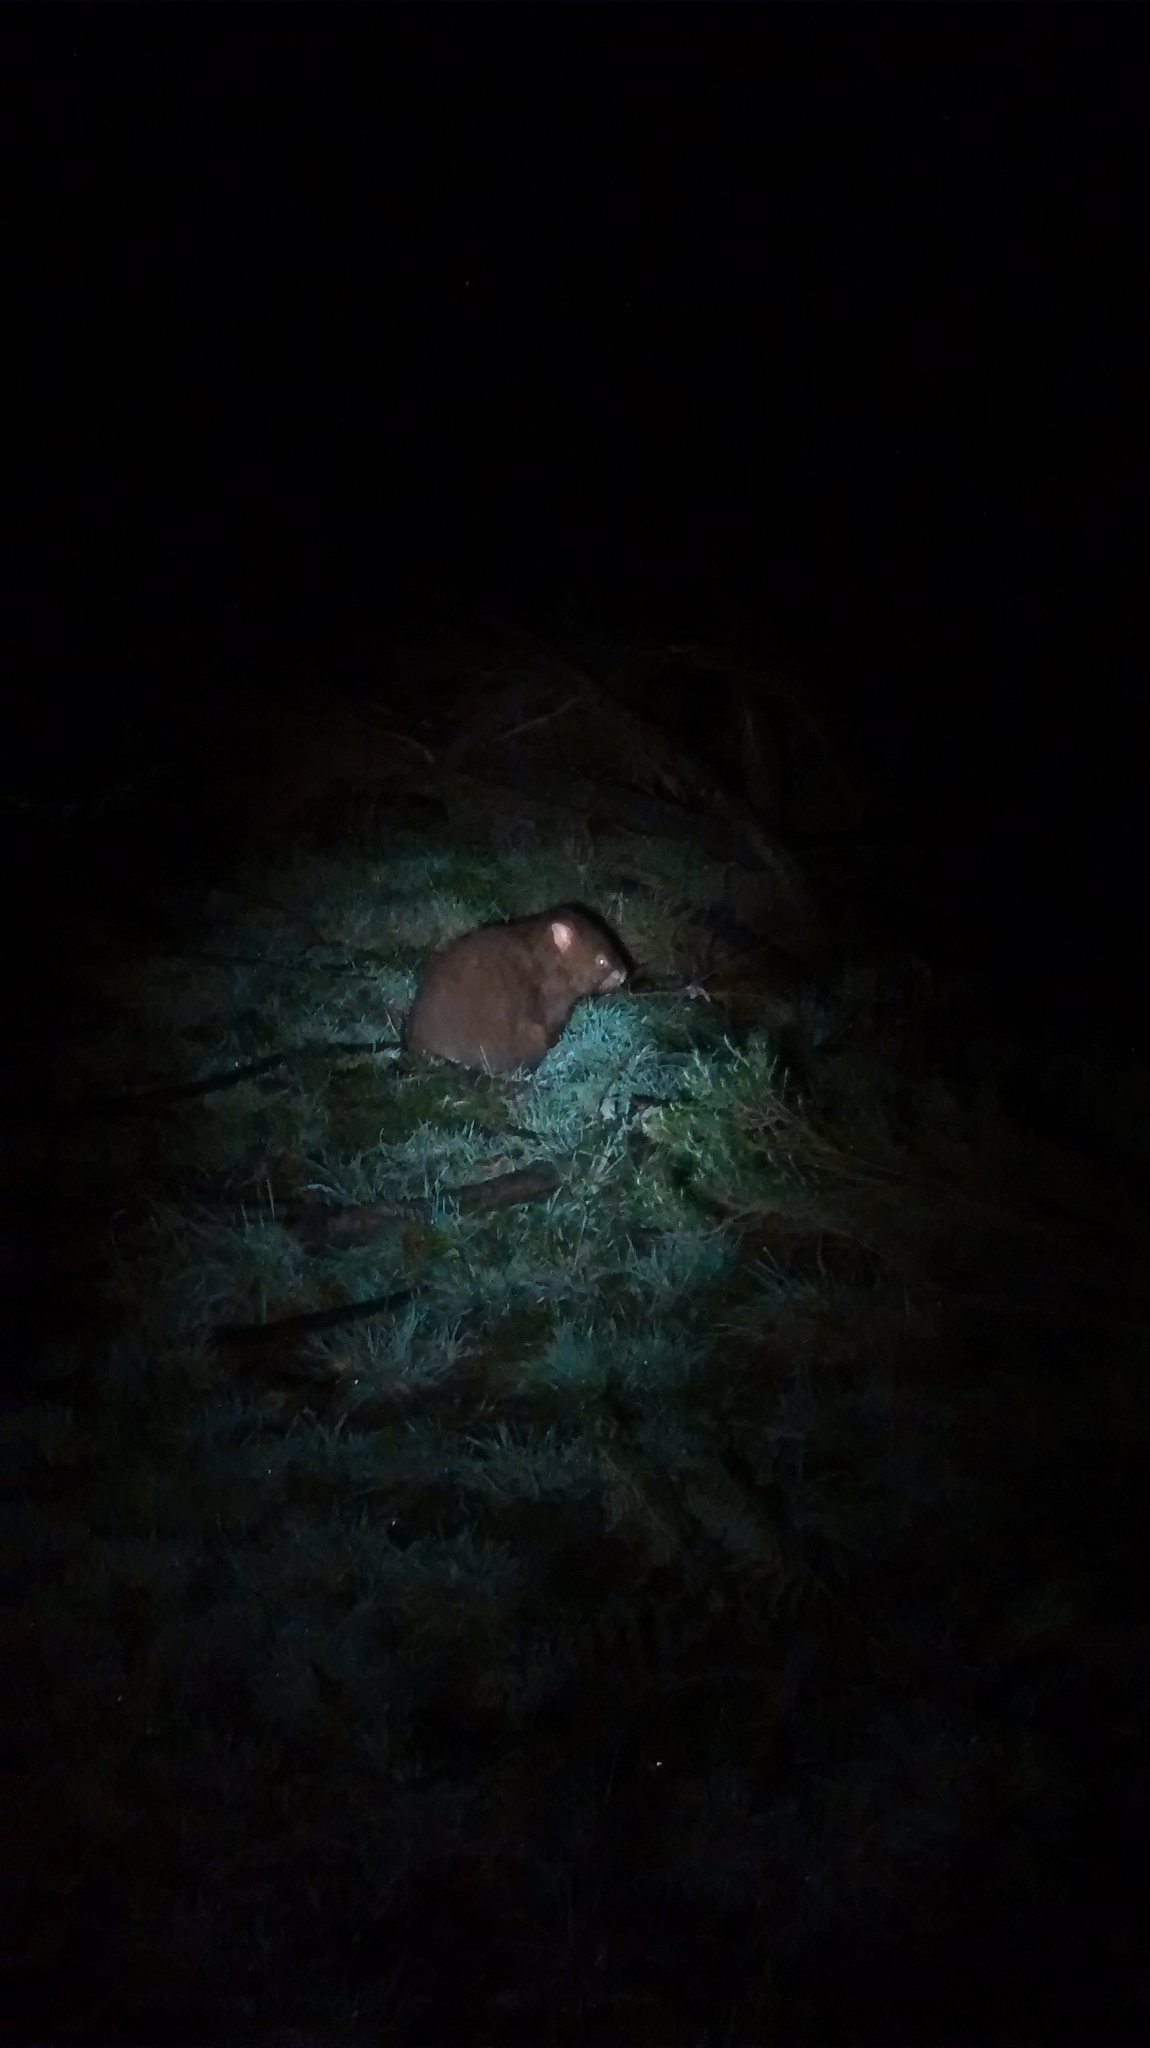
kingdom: Animalia
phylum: Chordata
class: Mammalia
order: Diprotodontia
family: Vombatidae
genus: Vombatus
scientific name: Vombatus ursinus
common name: Common wombat
